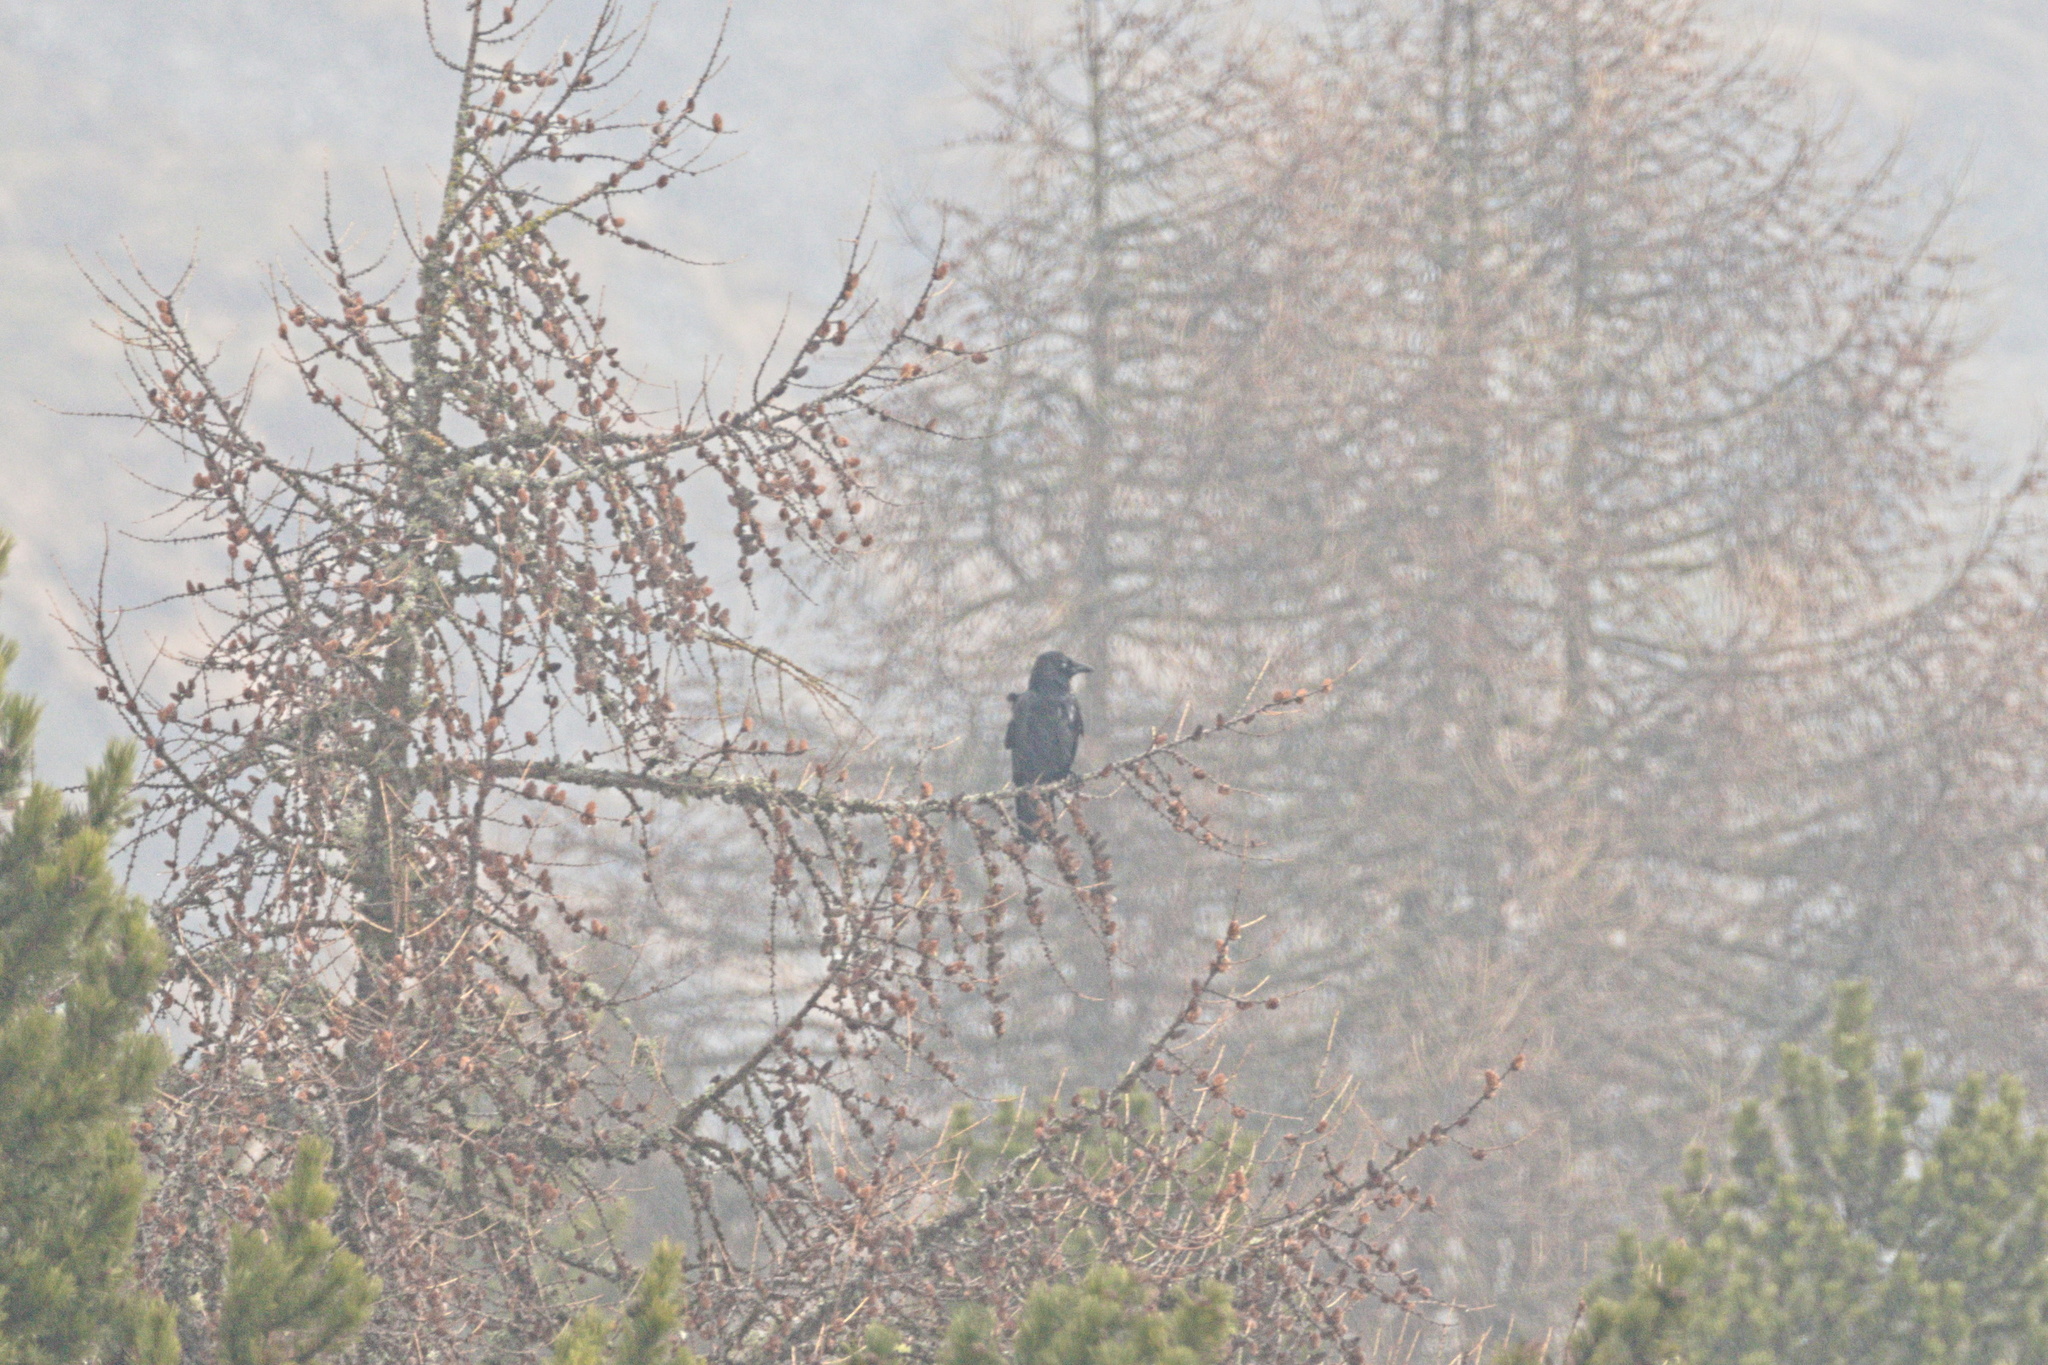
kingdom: Animalia
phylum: Chordata
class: Aves
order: Passeriformes
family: Corvidae
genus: Corvus
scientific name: Corvus corone
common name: Carrion crow
